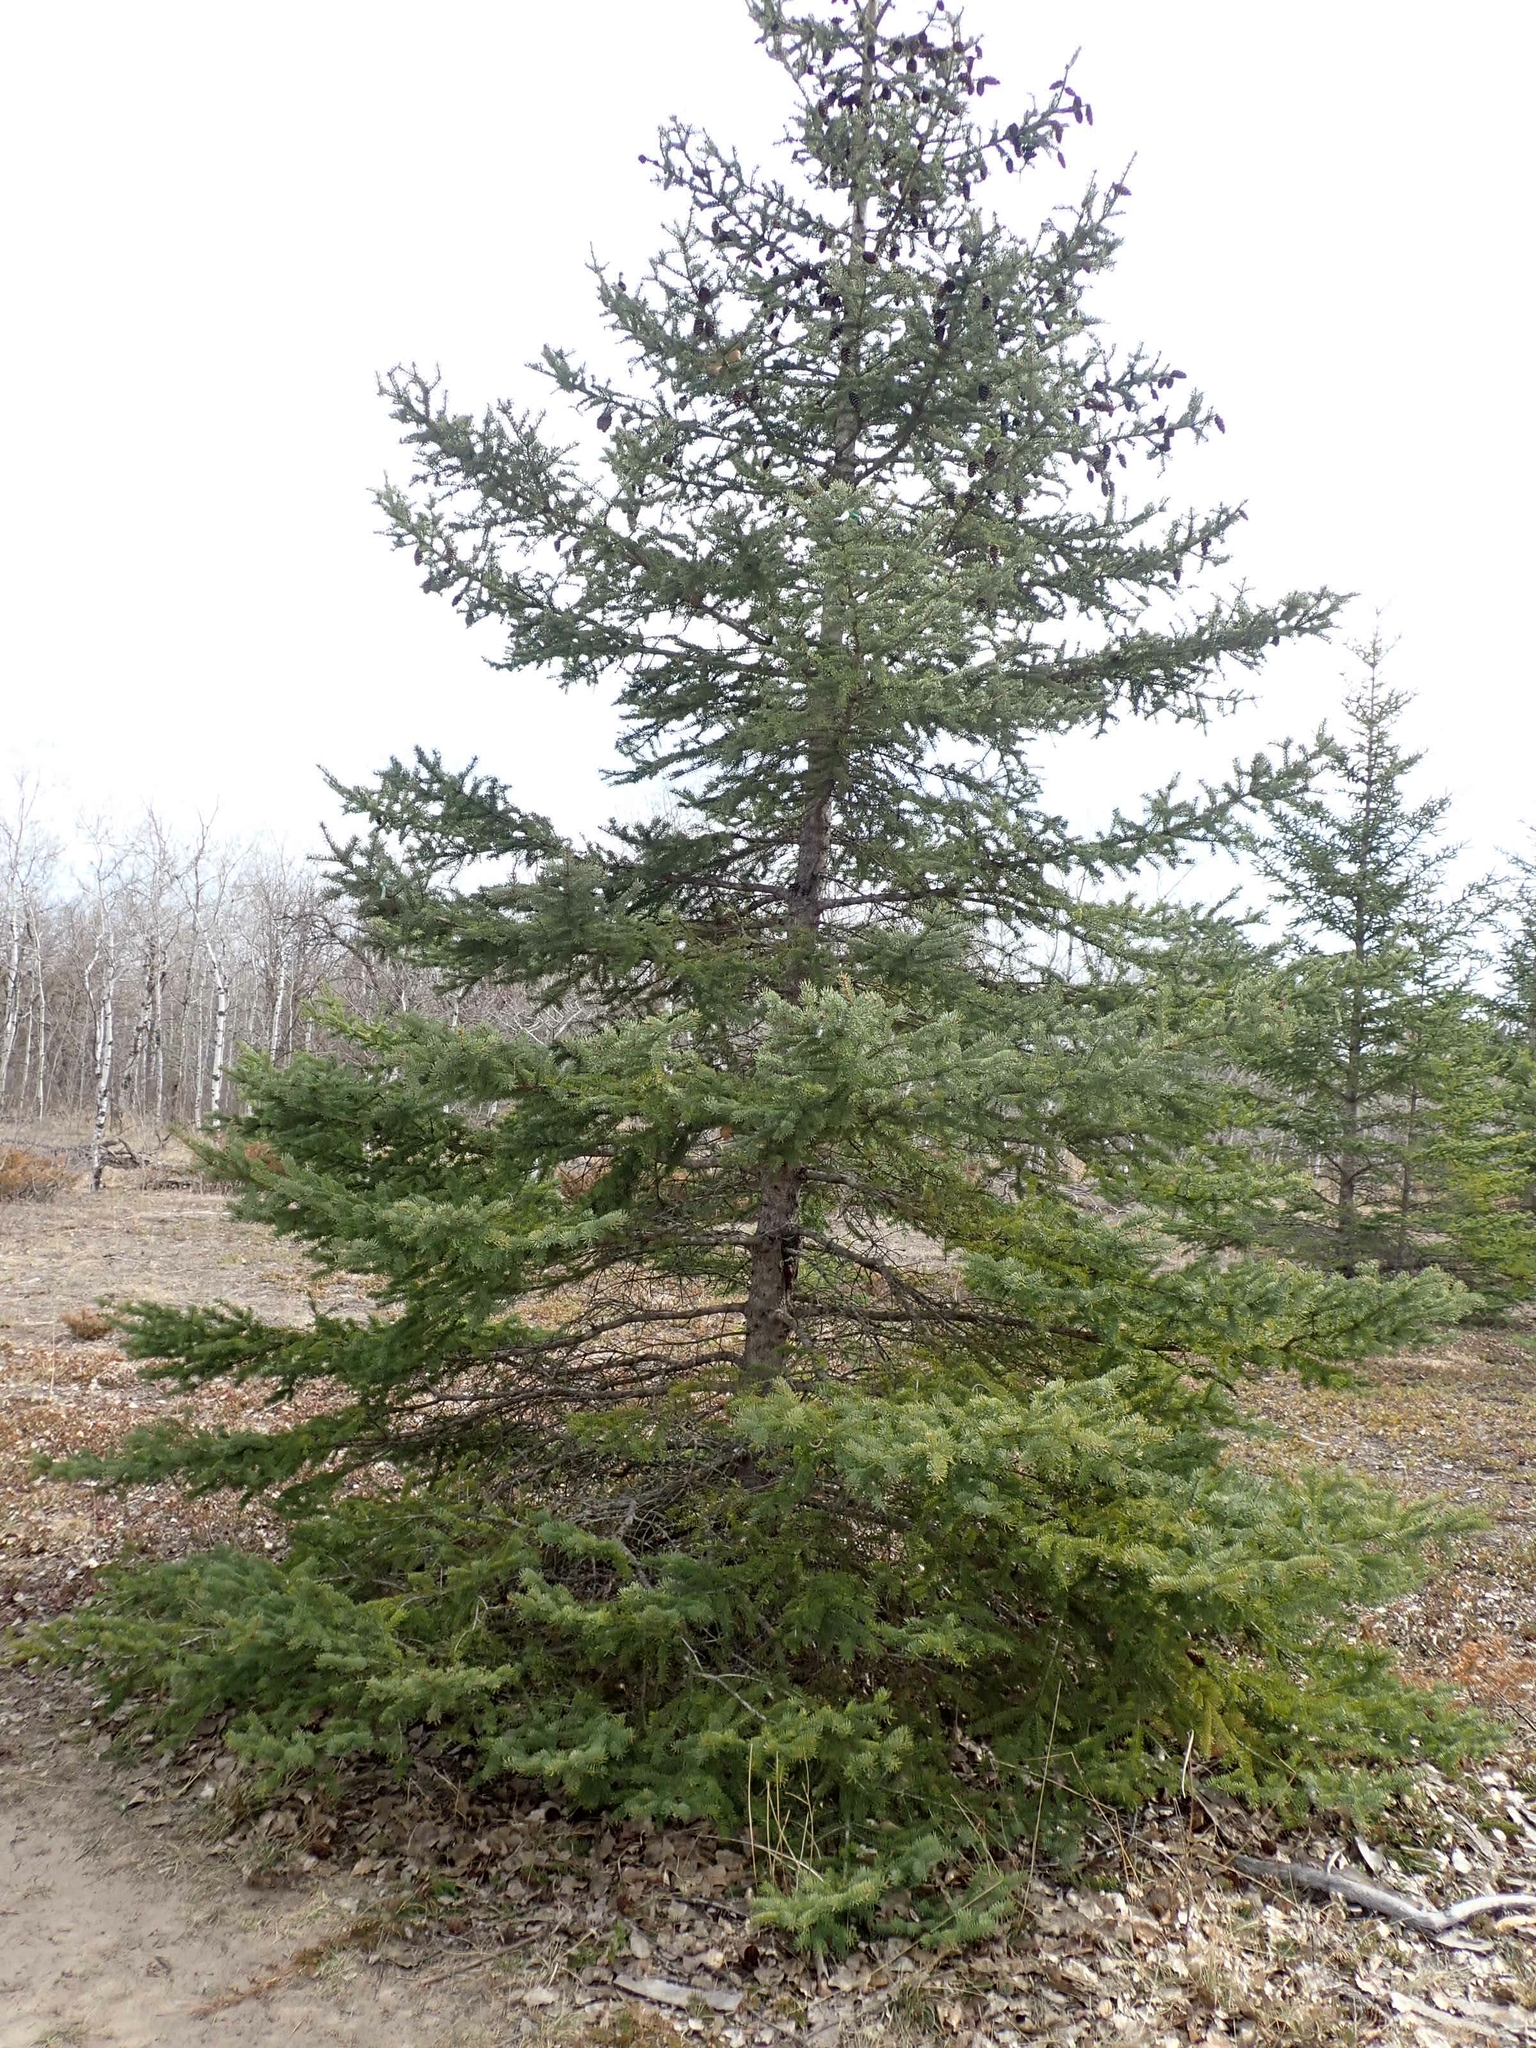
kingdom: Plantae
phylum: Tracheophyta
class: Pinopsida
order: Pinales
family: Pinaceae
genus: Picea
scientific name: Picea glauca
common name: White spruce
